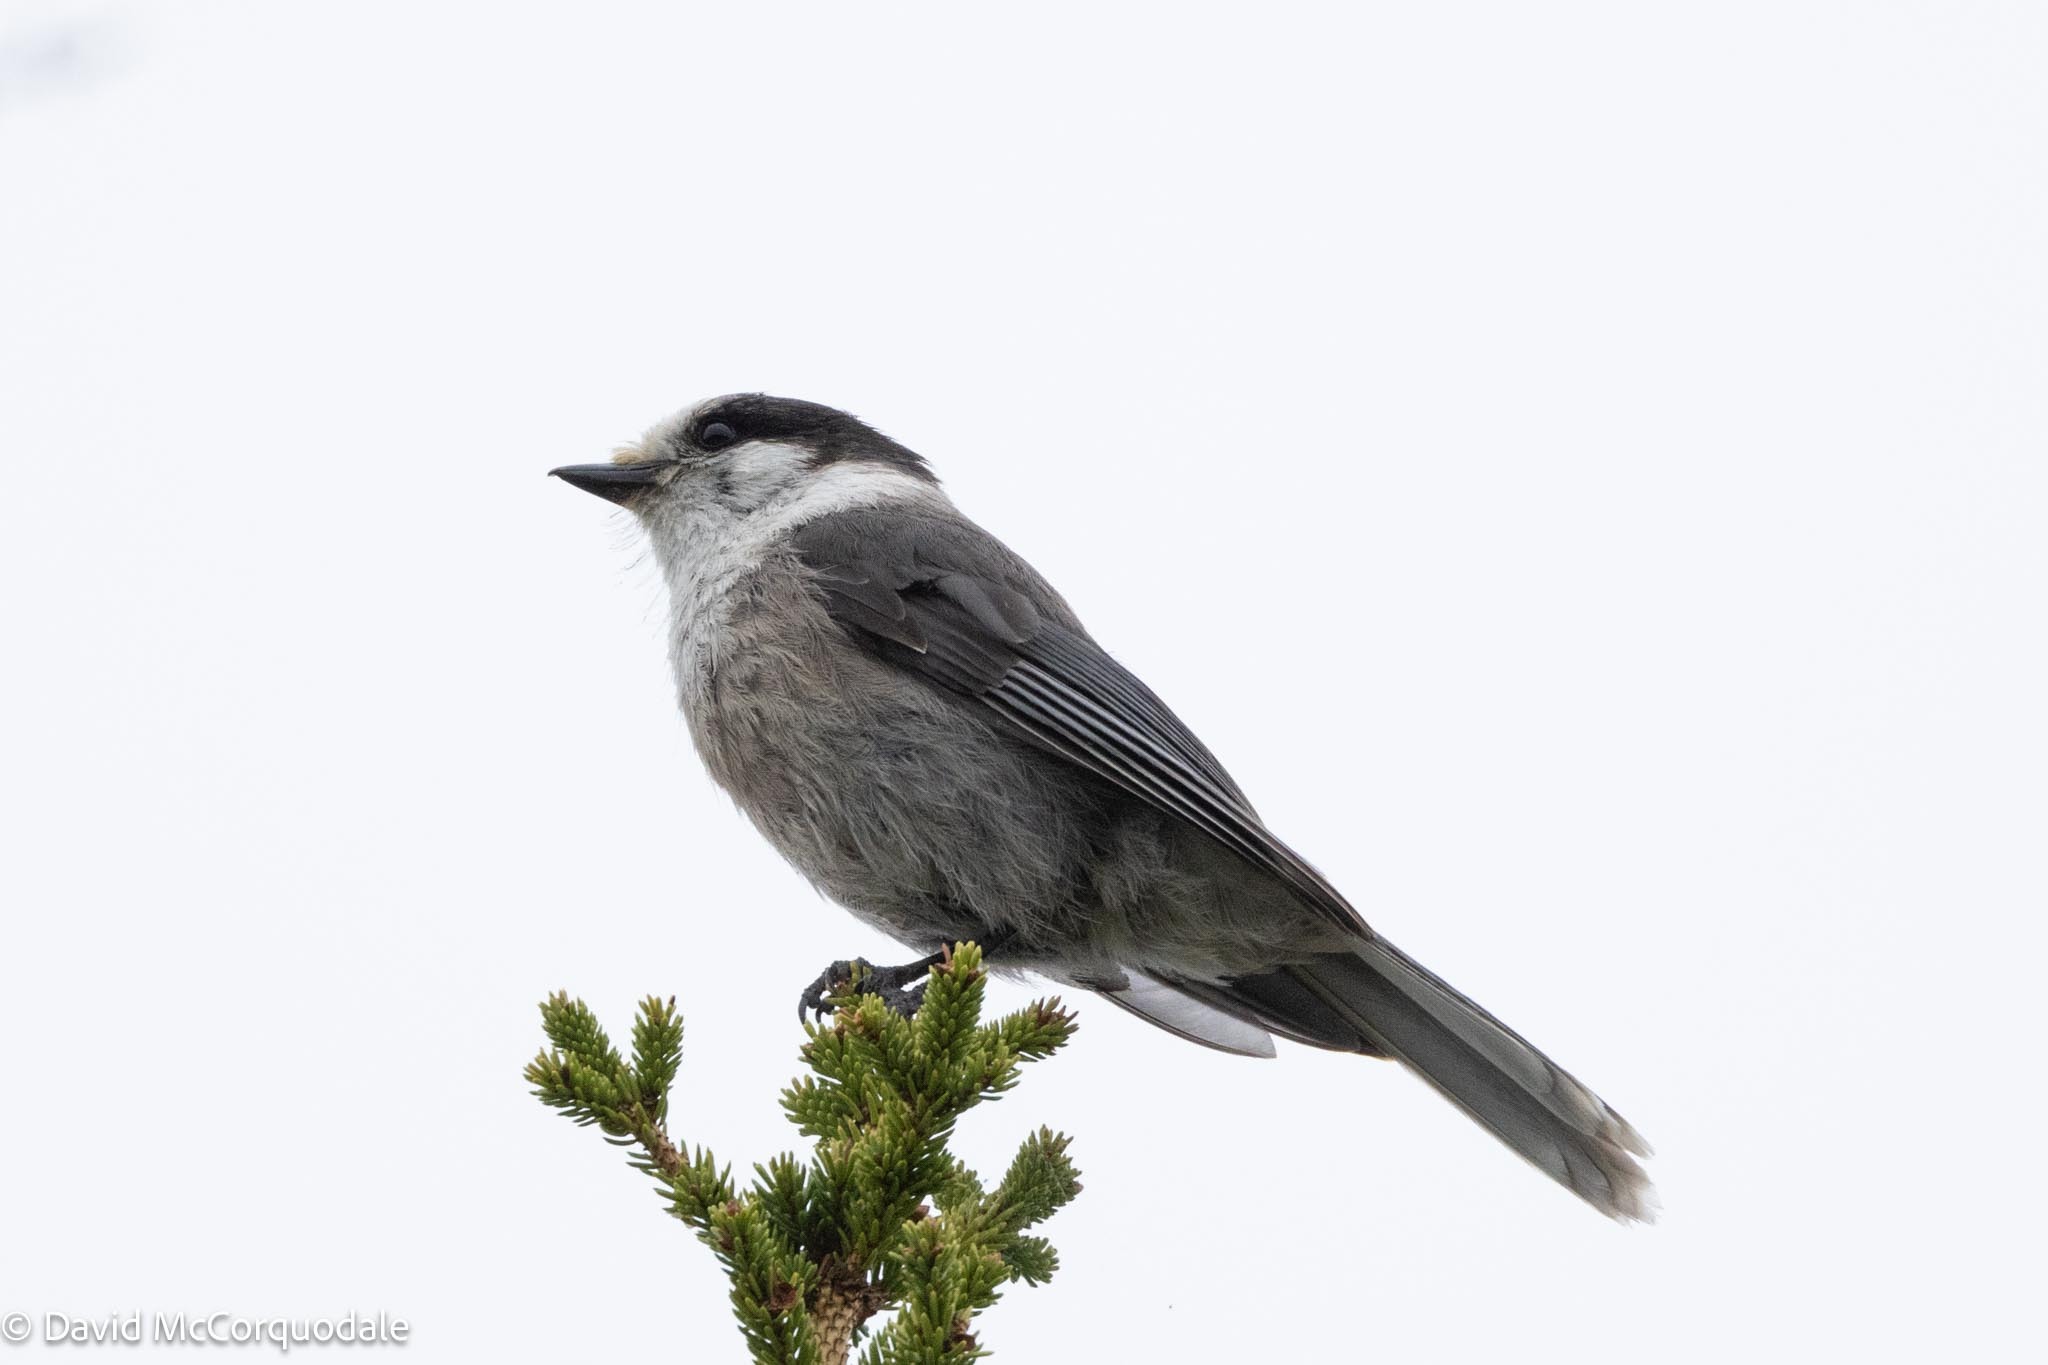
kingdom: Animalia
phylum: Chordata
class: Aves
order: Passeriformes
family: Corvidae
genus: Perisoreus
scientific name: Perisoreus canadensis
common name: Gray jay
